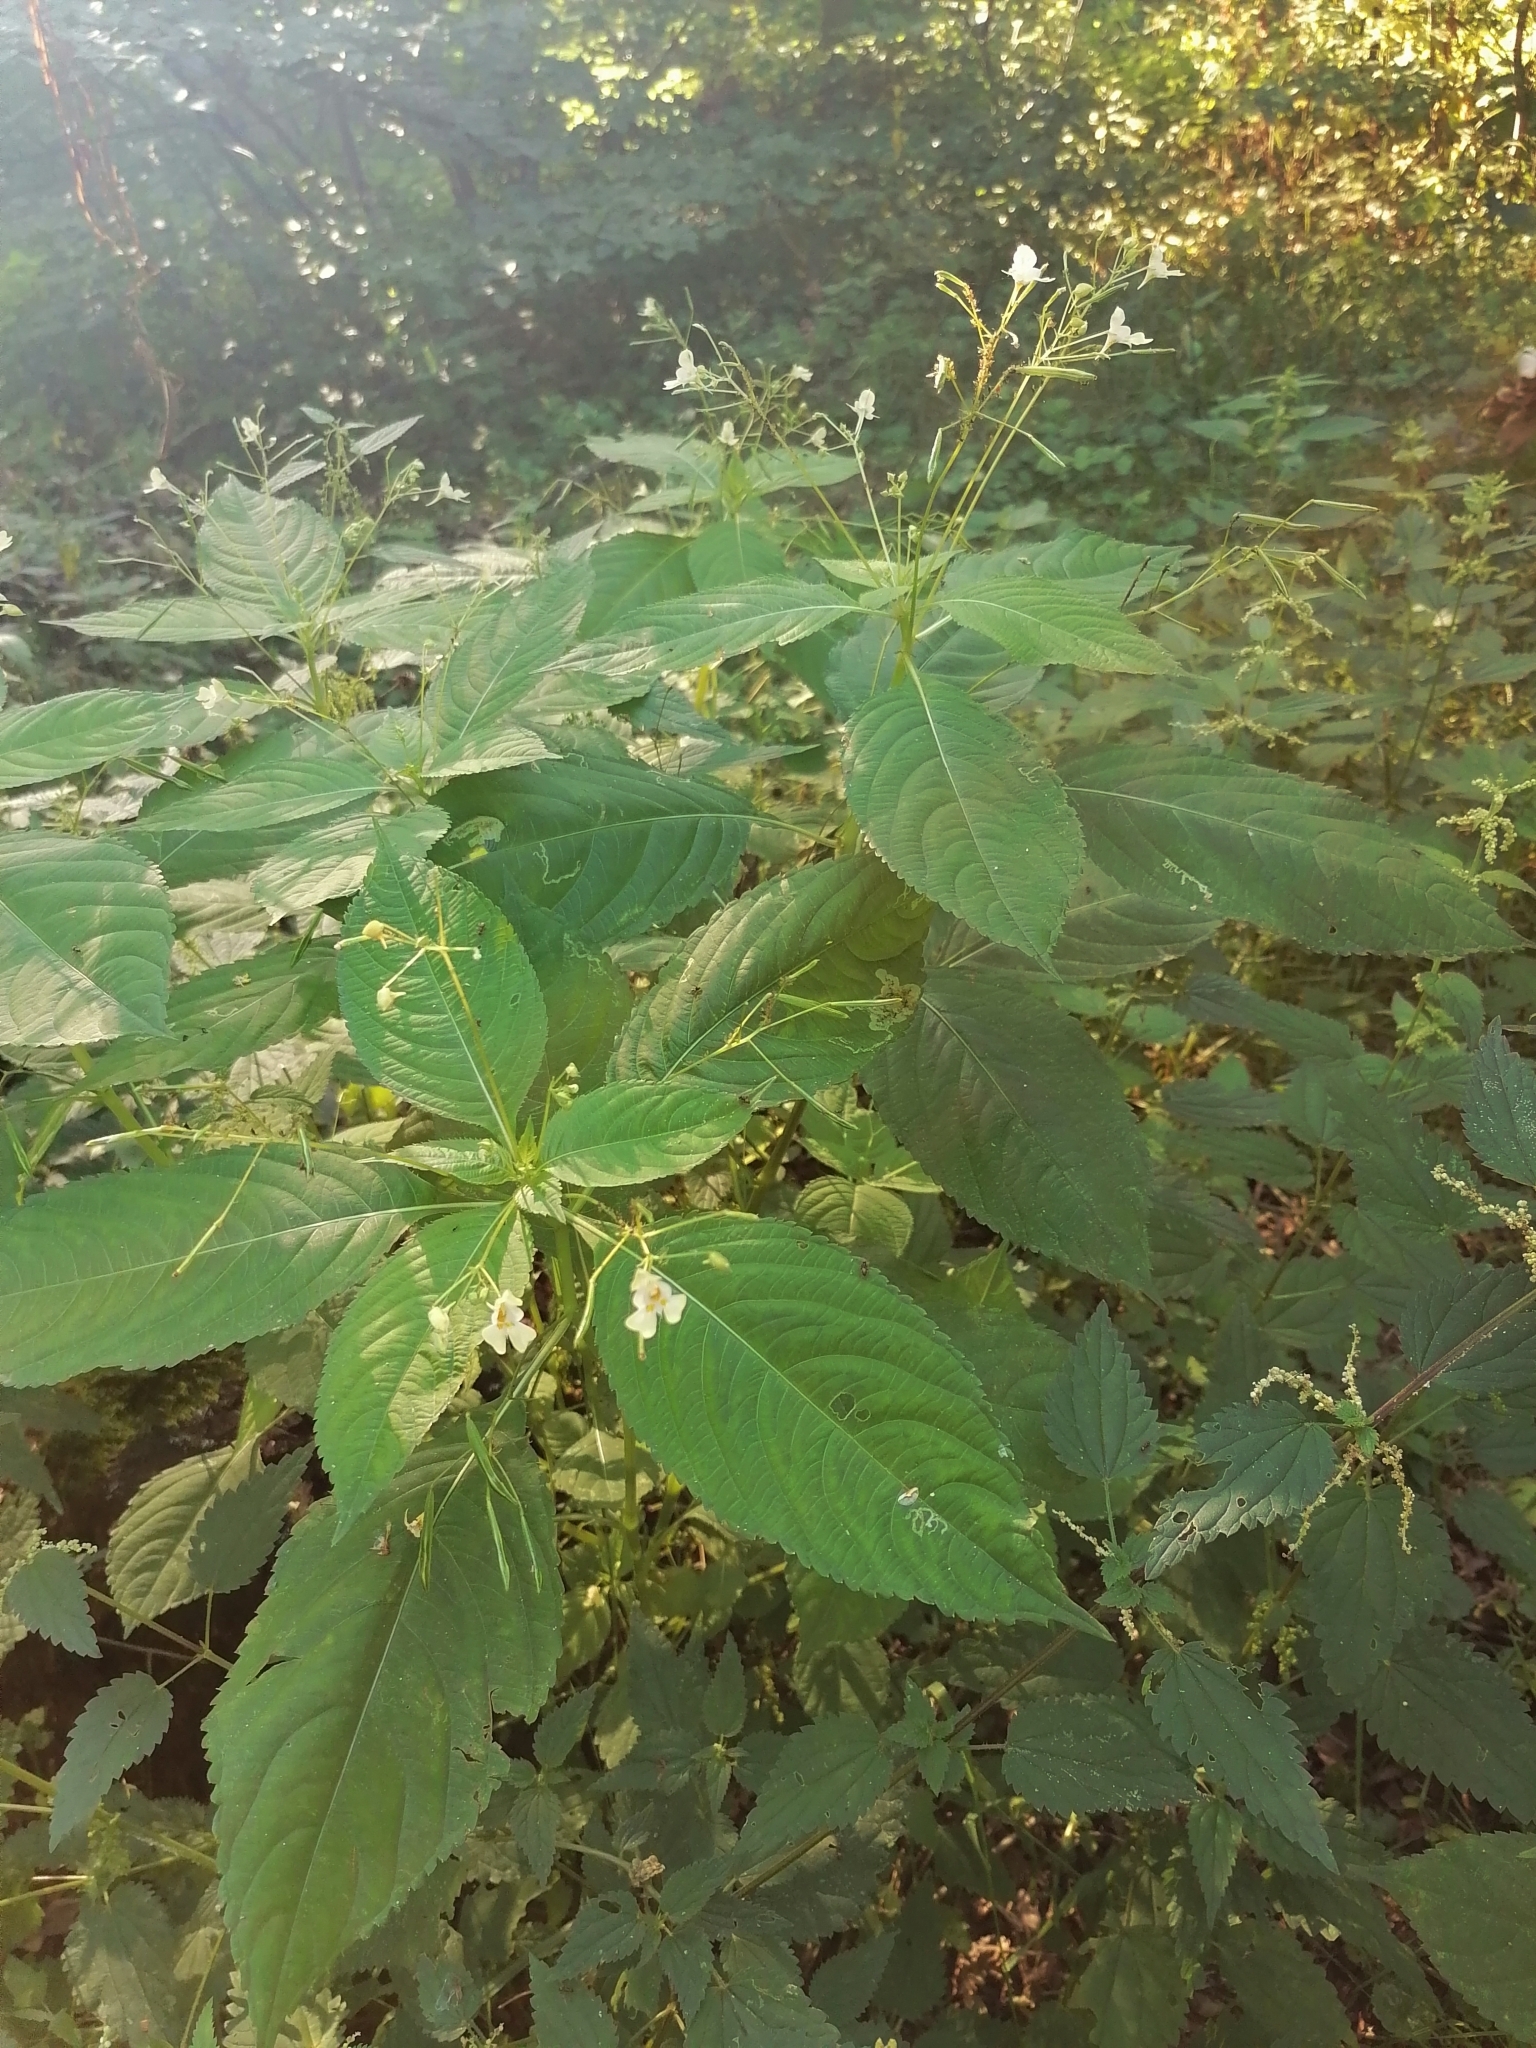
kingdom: Plantae
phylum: Tracheophyta
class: Magnoliopsida
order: Ericales
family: Balsaminaceae
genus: Impatiens
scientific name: Impatiens parviflora
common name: Small balsam
